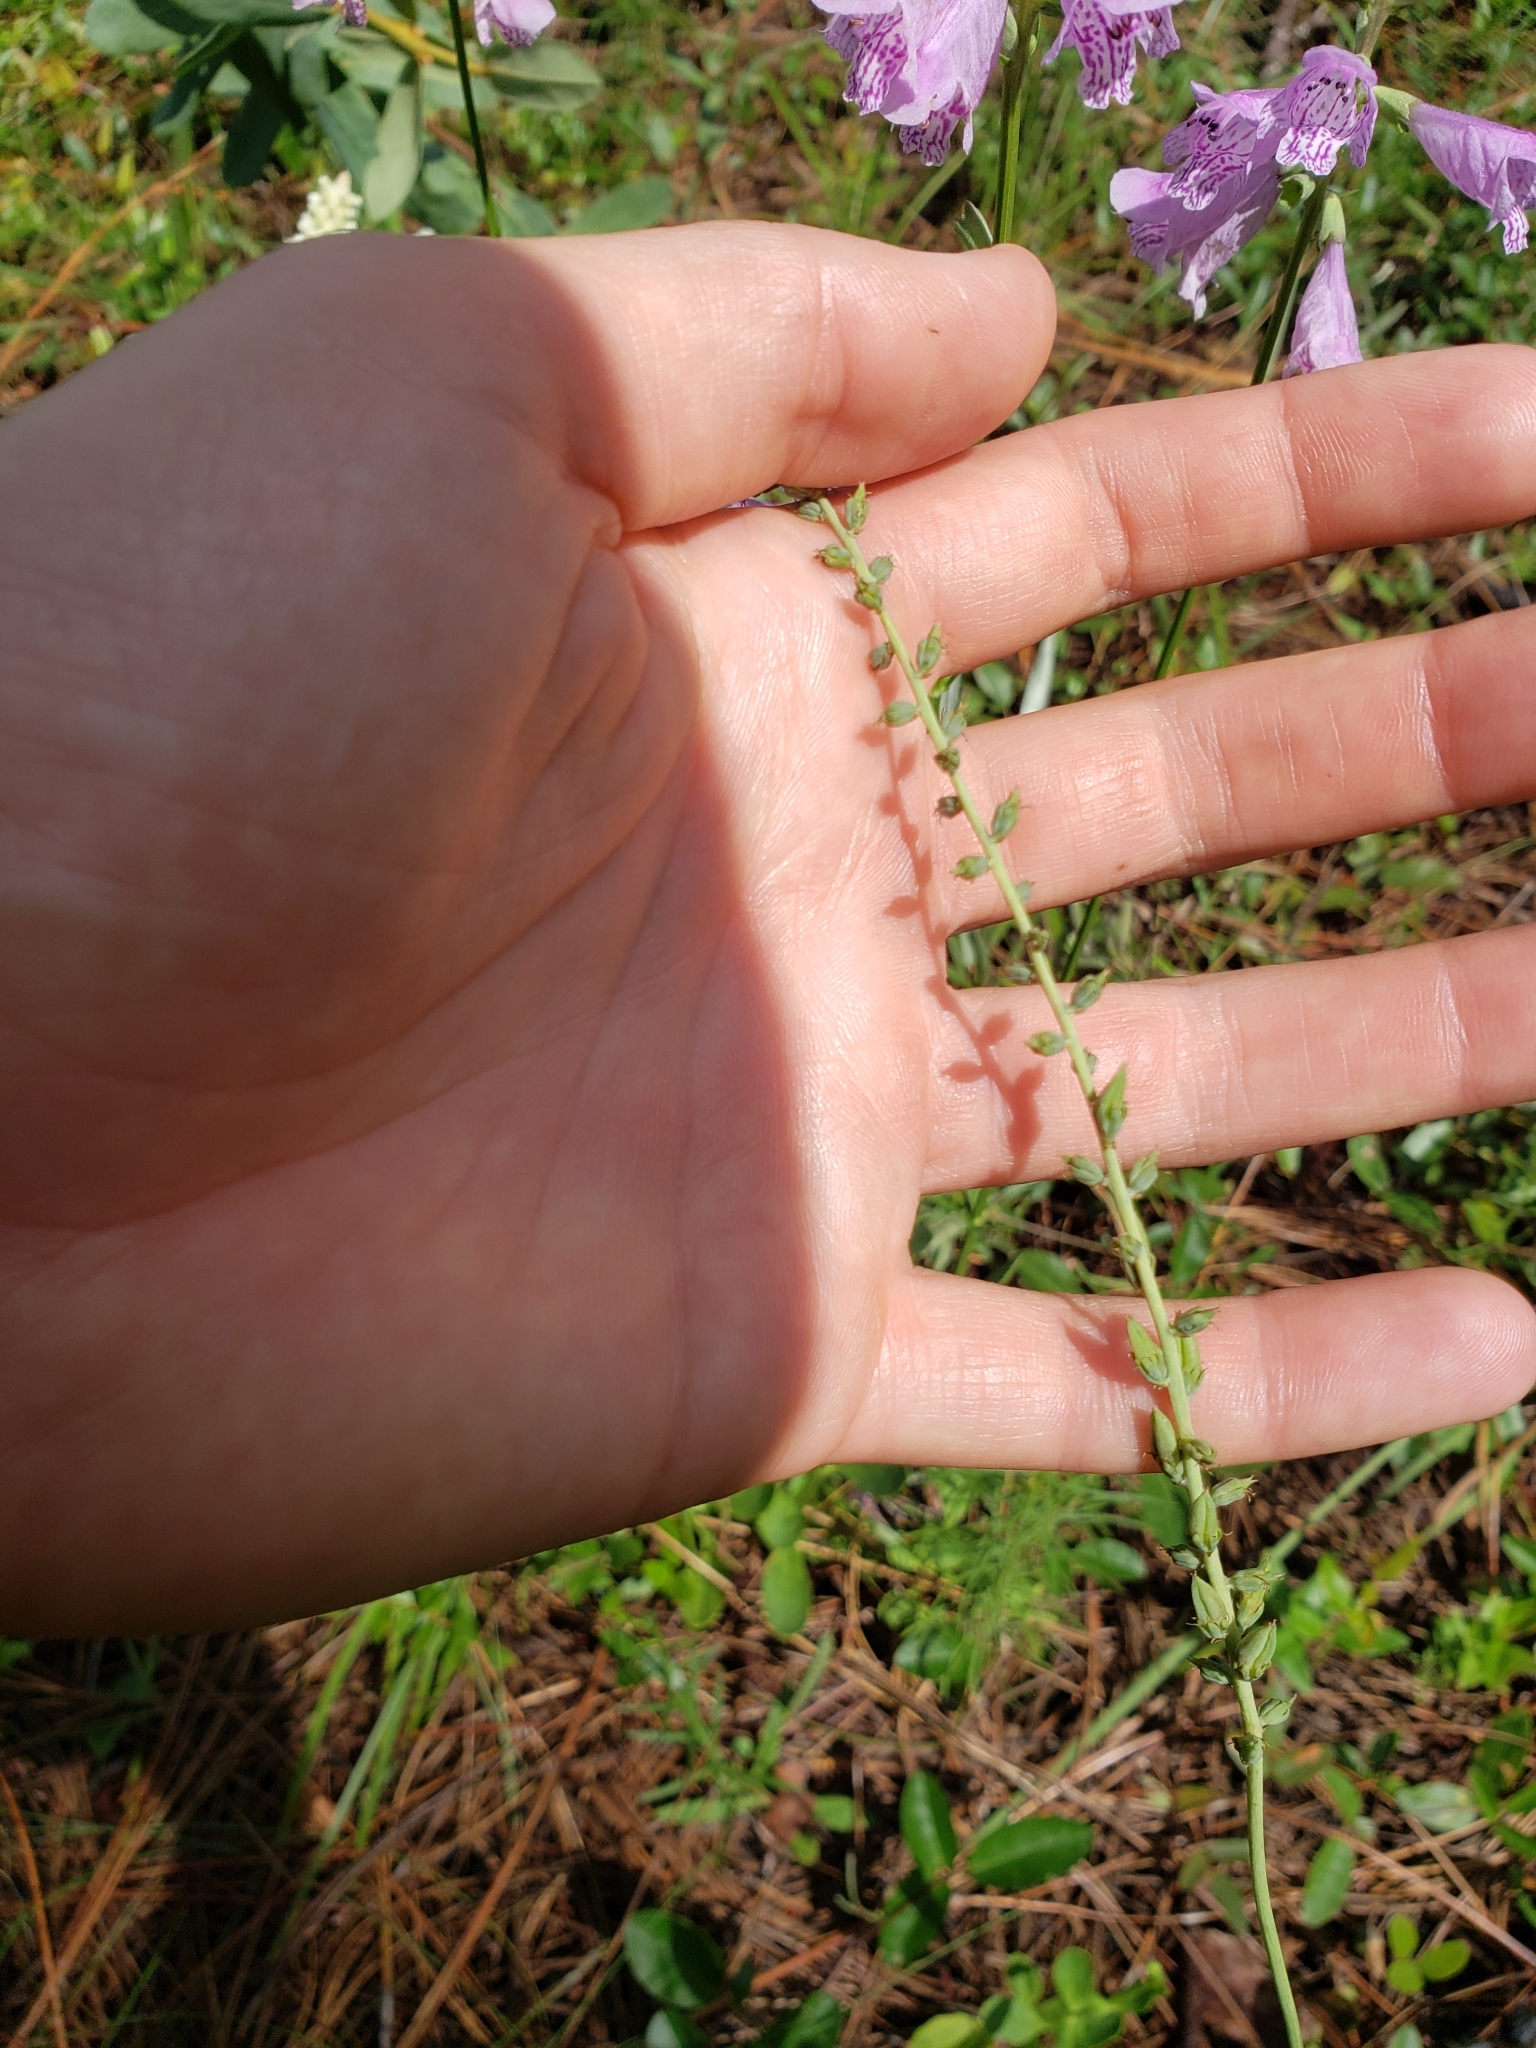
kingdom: Plantae
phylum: Tracheophyta
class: Liliopsida
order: Liliales
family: Melanthiaceae
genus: Schoenocaulon
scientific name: Schoenocaulon dubium
